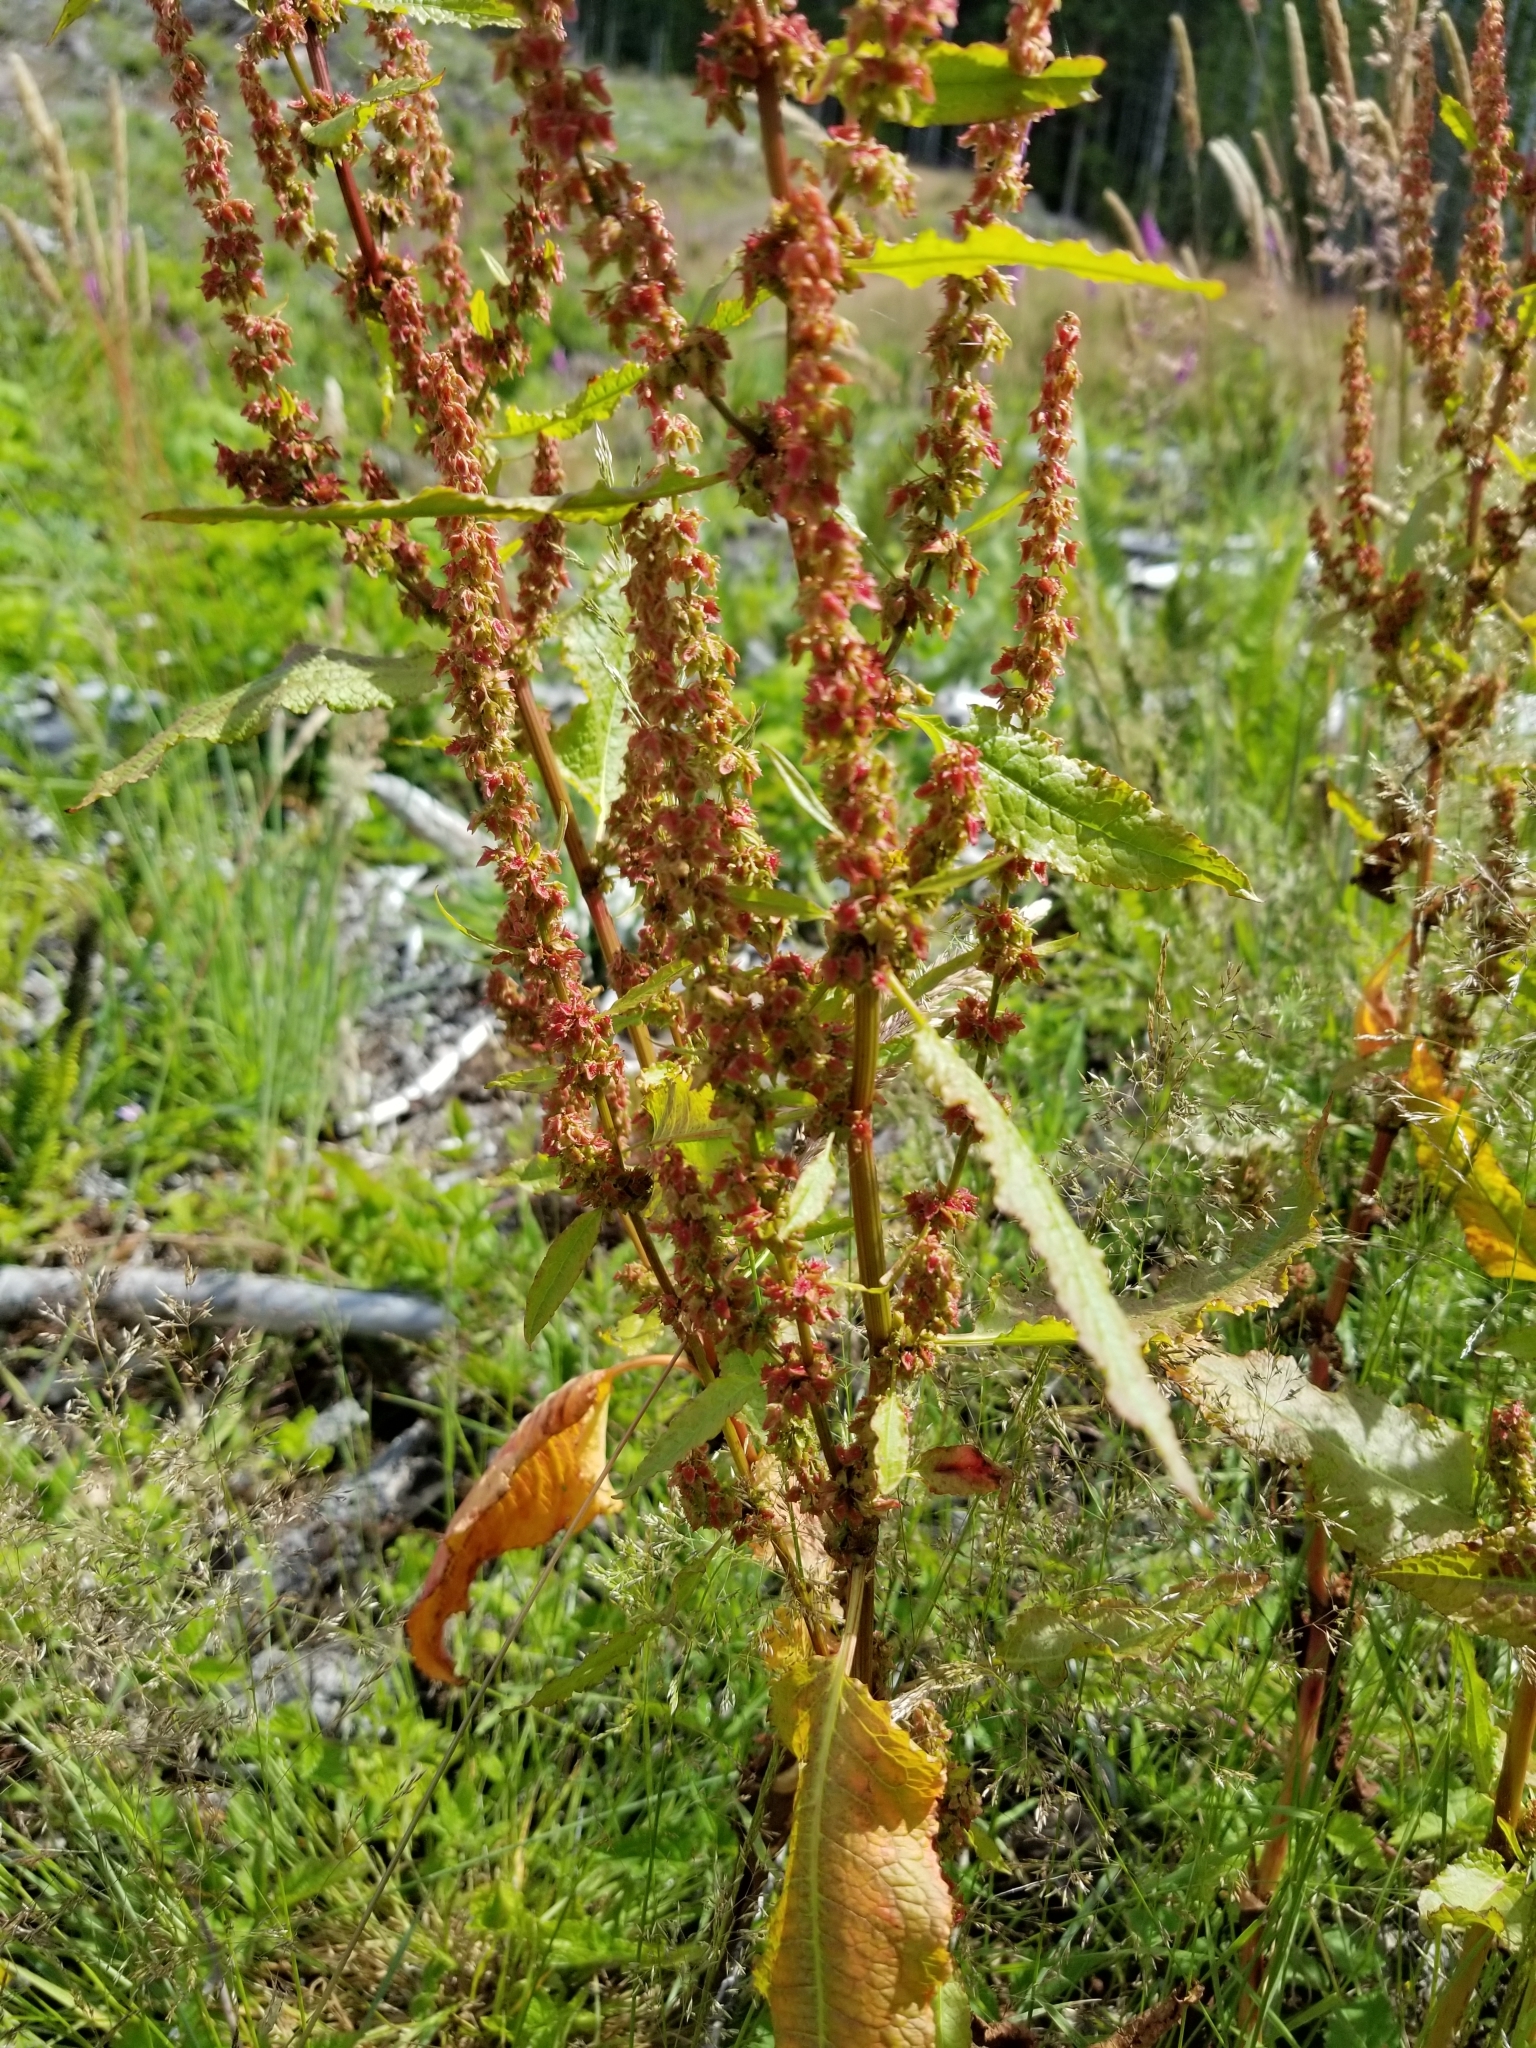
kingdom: Plantae
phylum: Tracheophyta
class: Magnoliopsida
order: Caryophyllales
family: Polygonaceae
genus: Rumex
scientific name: Rumex crispus
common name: Curled dock
